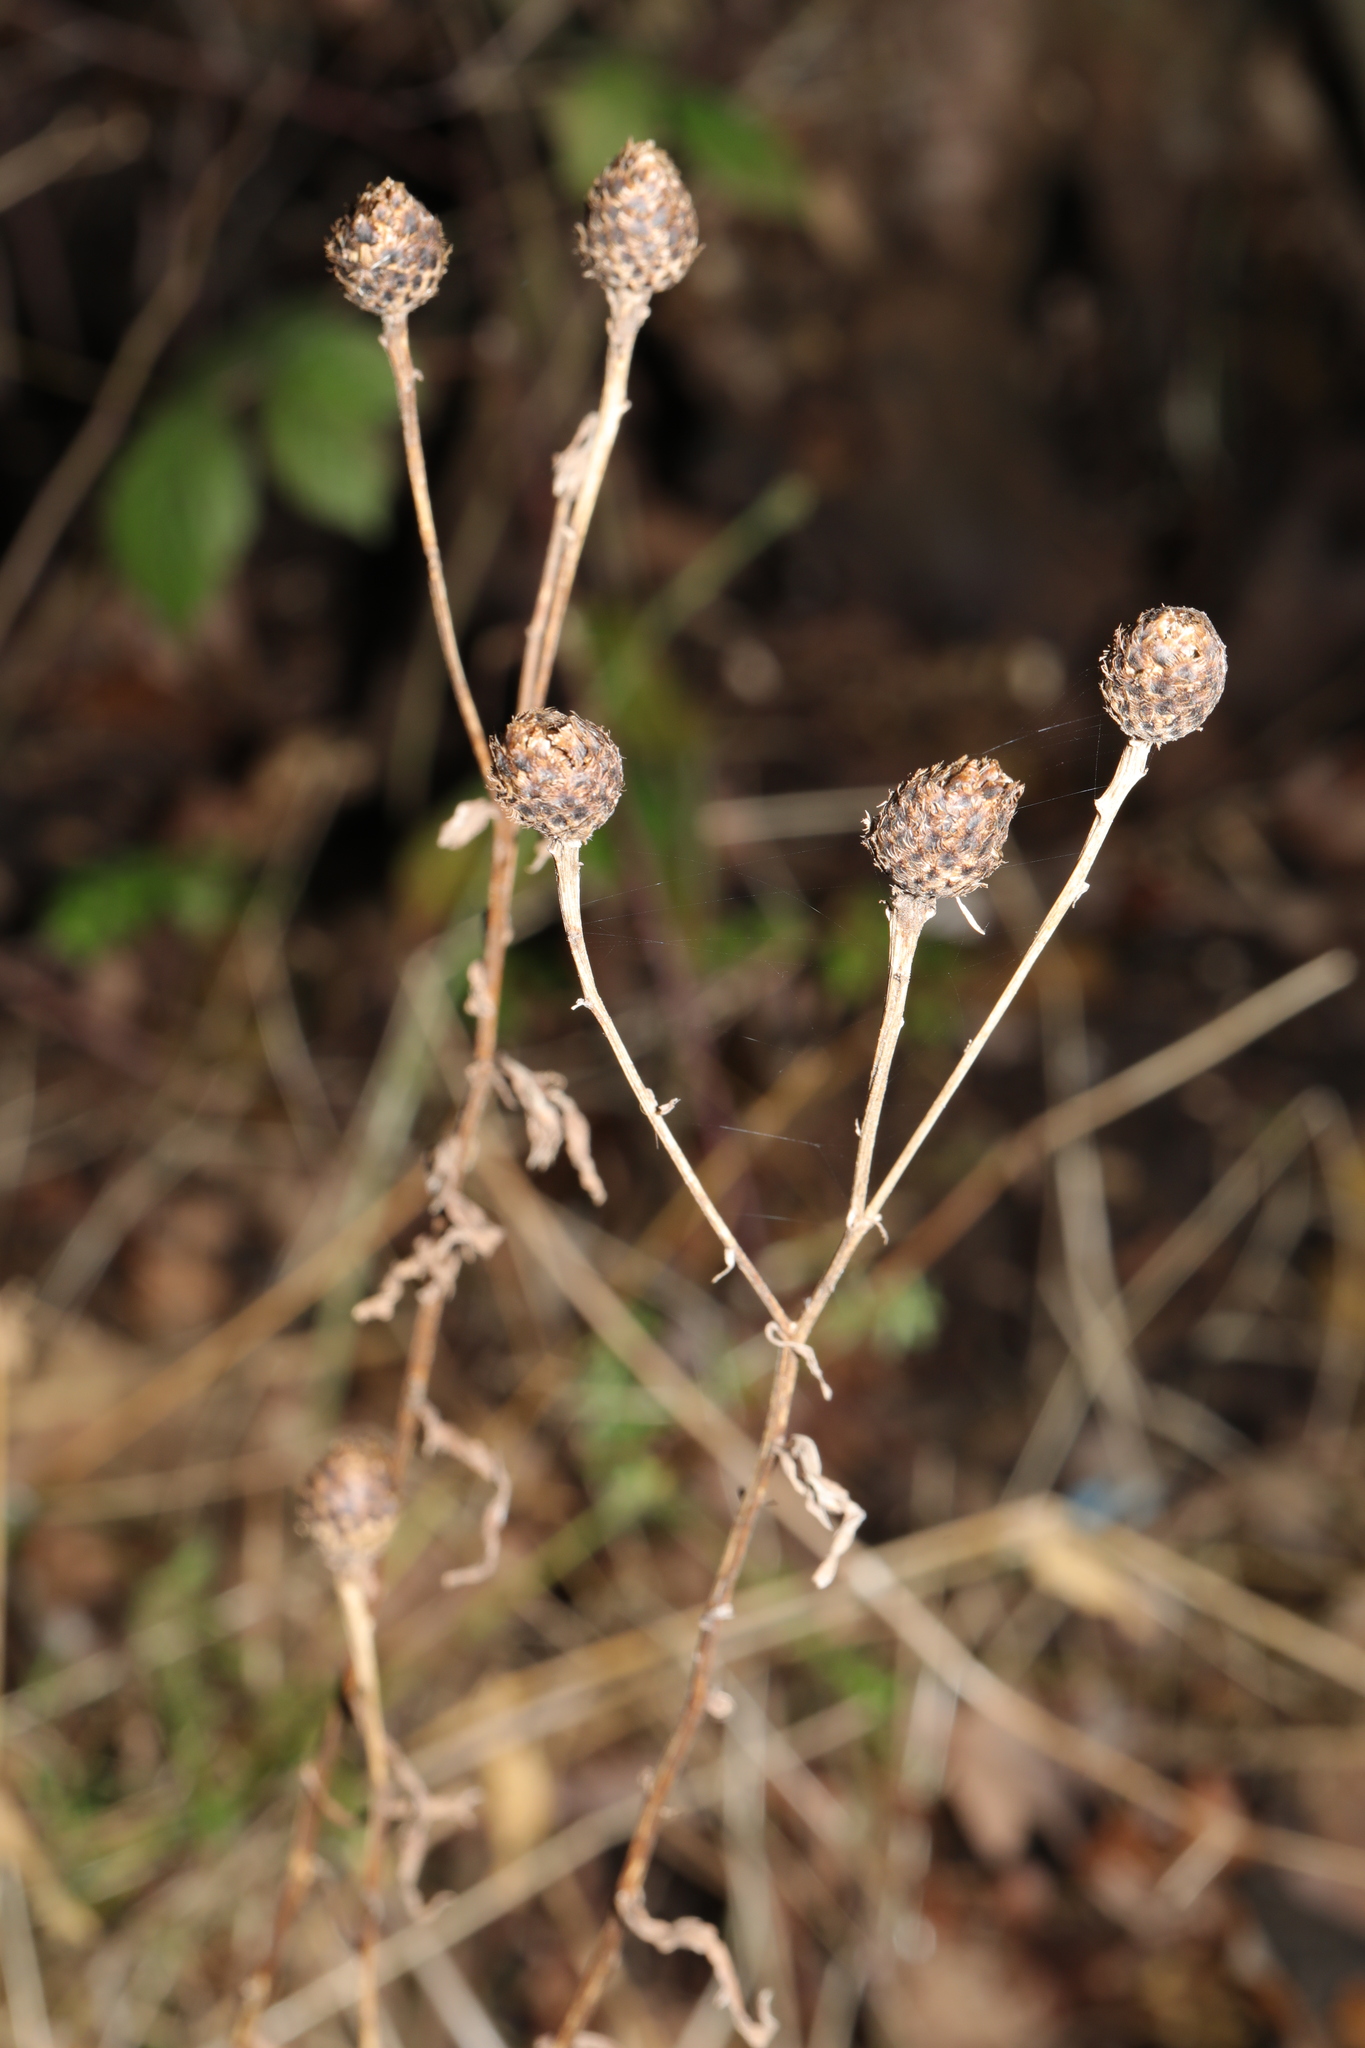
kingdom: Plantae
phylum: Tracheophyta
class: Magnoliopsida
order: Asterales
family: Asteraceae
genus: Centaurea
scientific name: Centaurea nigra
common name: Lesser knapweed
